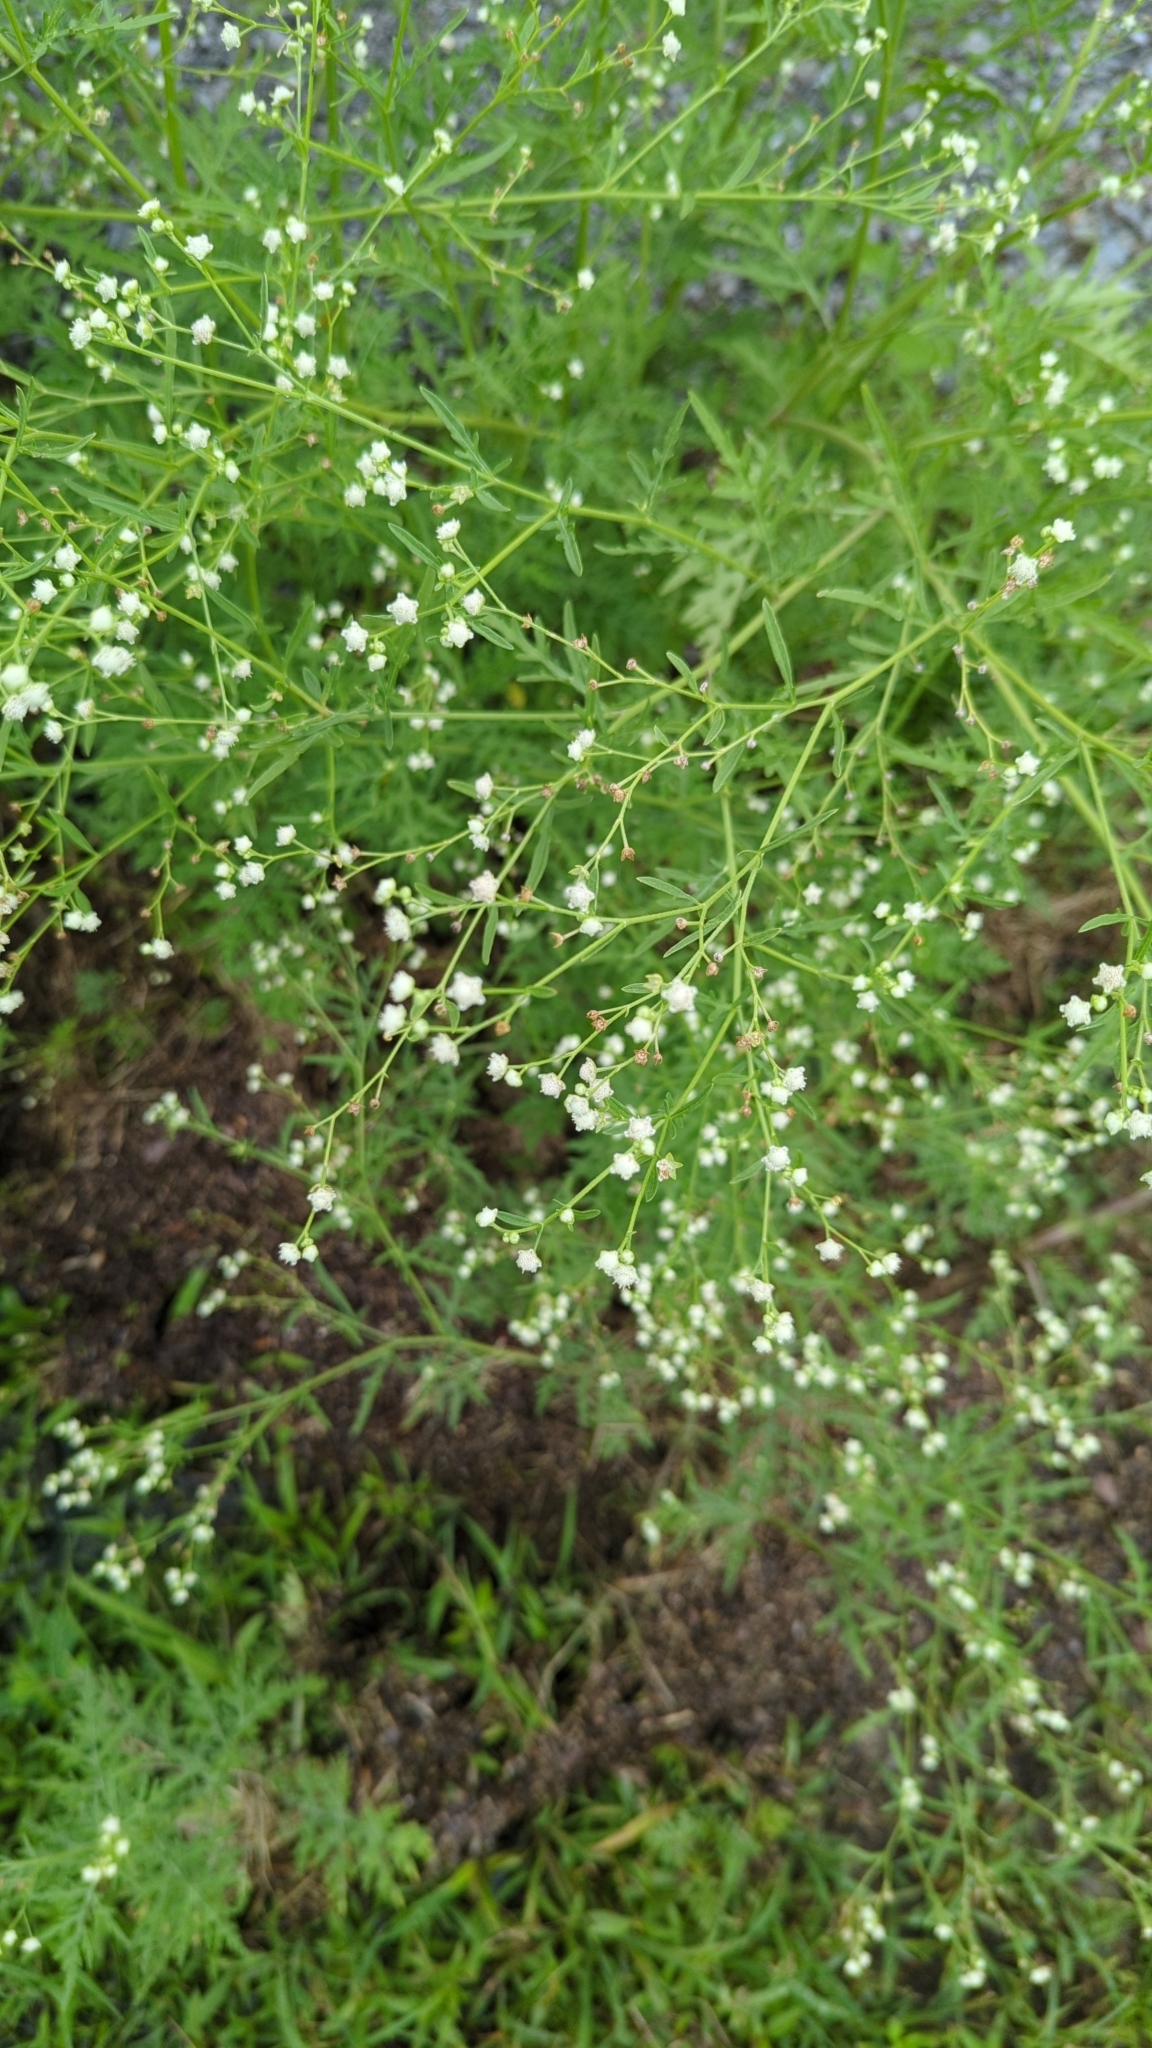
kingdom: Plantae
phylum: Tracheophyta
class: Magnoliopsida
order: Asterales
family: Asteraceae
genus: Parthenium
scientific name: Parthenium hysterophorus
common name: Santa maria feverfew
